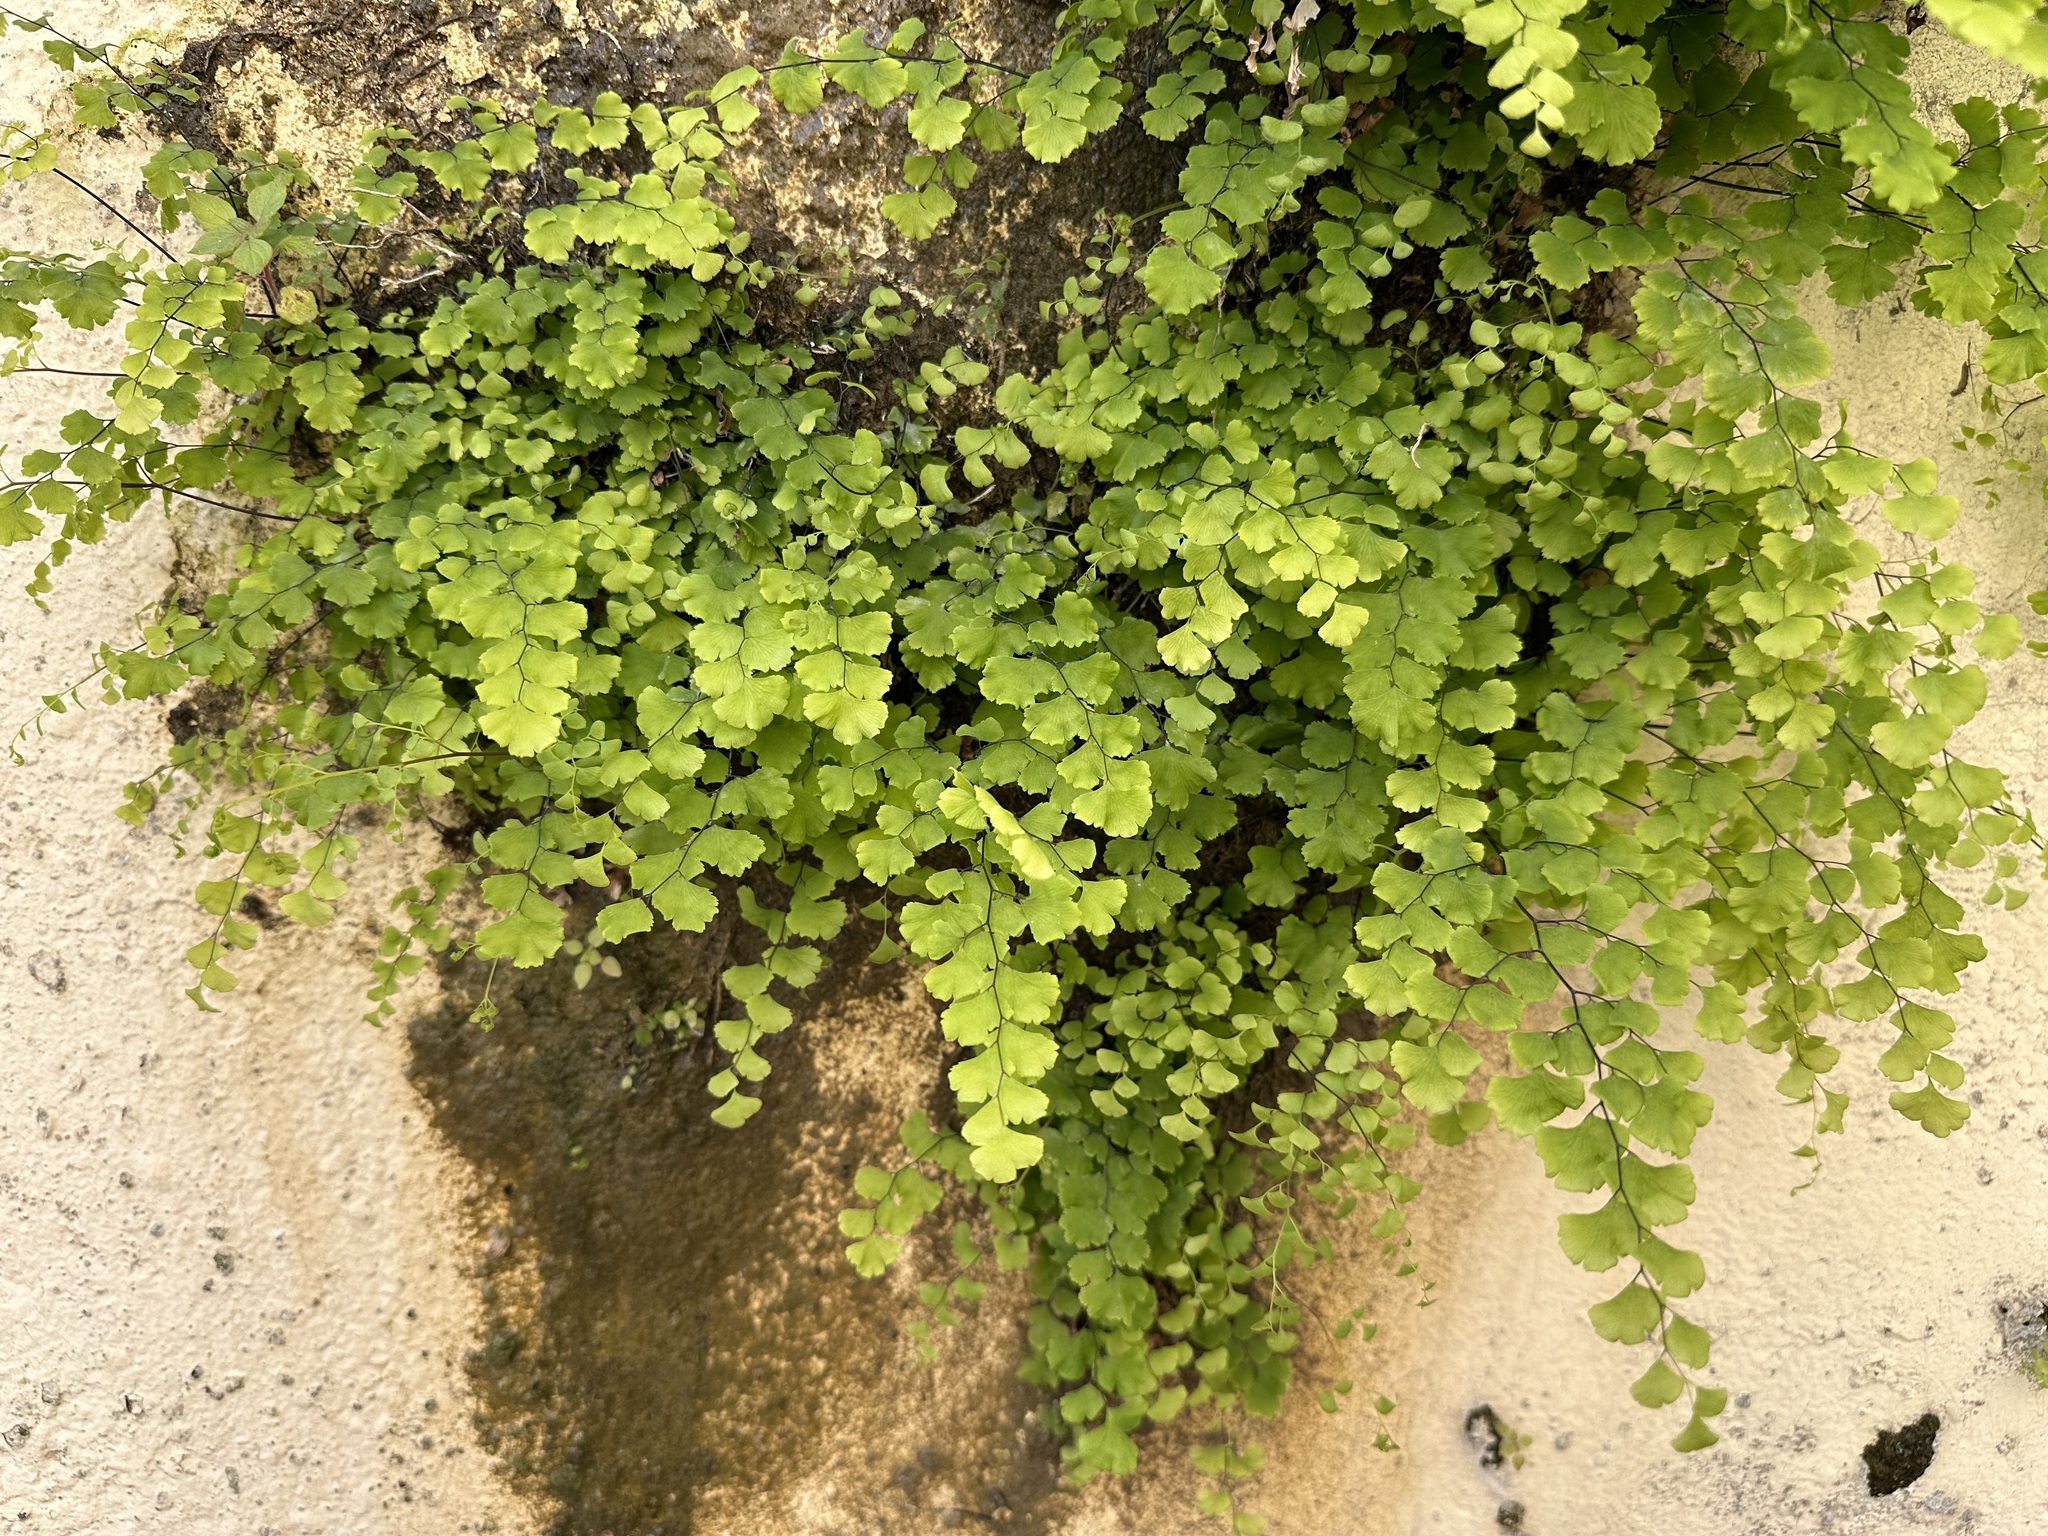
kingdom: Plantae
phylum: Tracheophyta
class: Polypodiopsida
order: Polypodiales
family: Pteridaceae
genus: Adiantum
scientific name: Adiantum capillus-veneris
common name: Maidenhair fern
